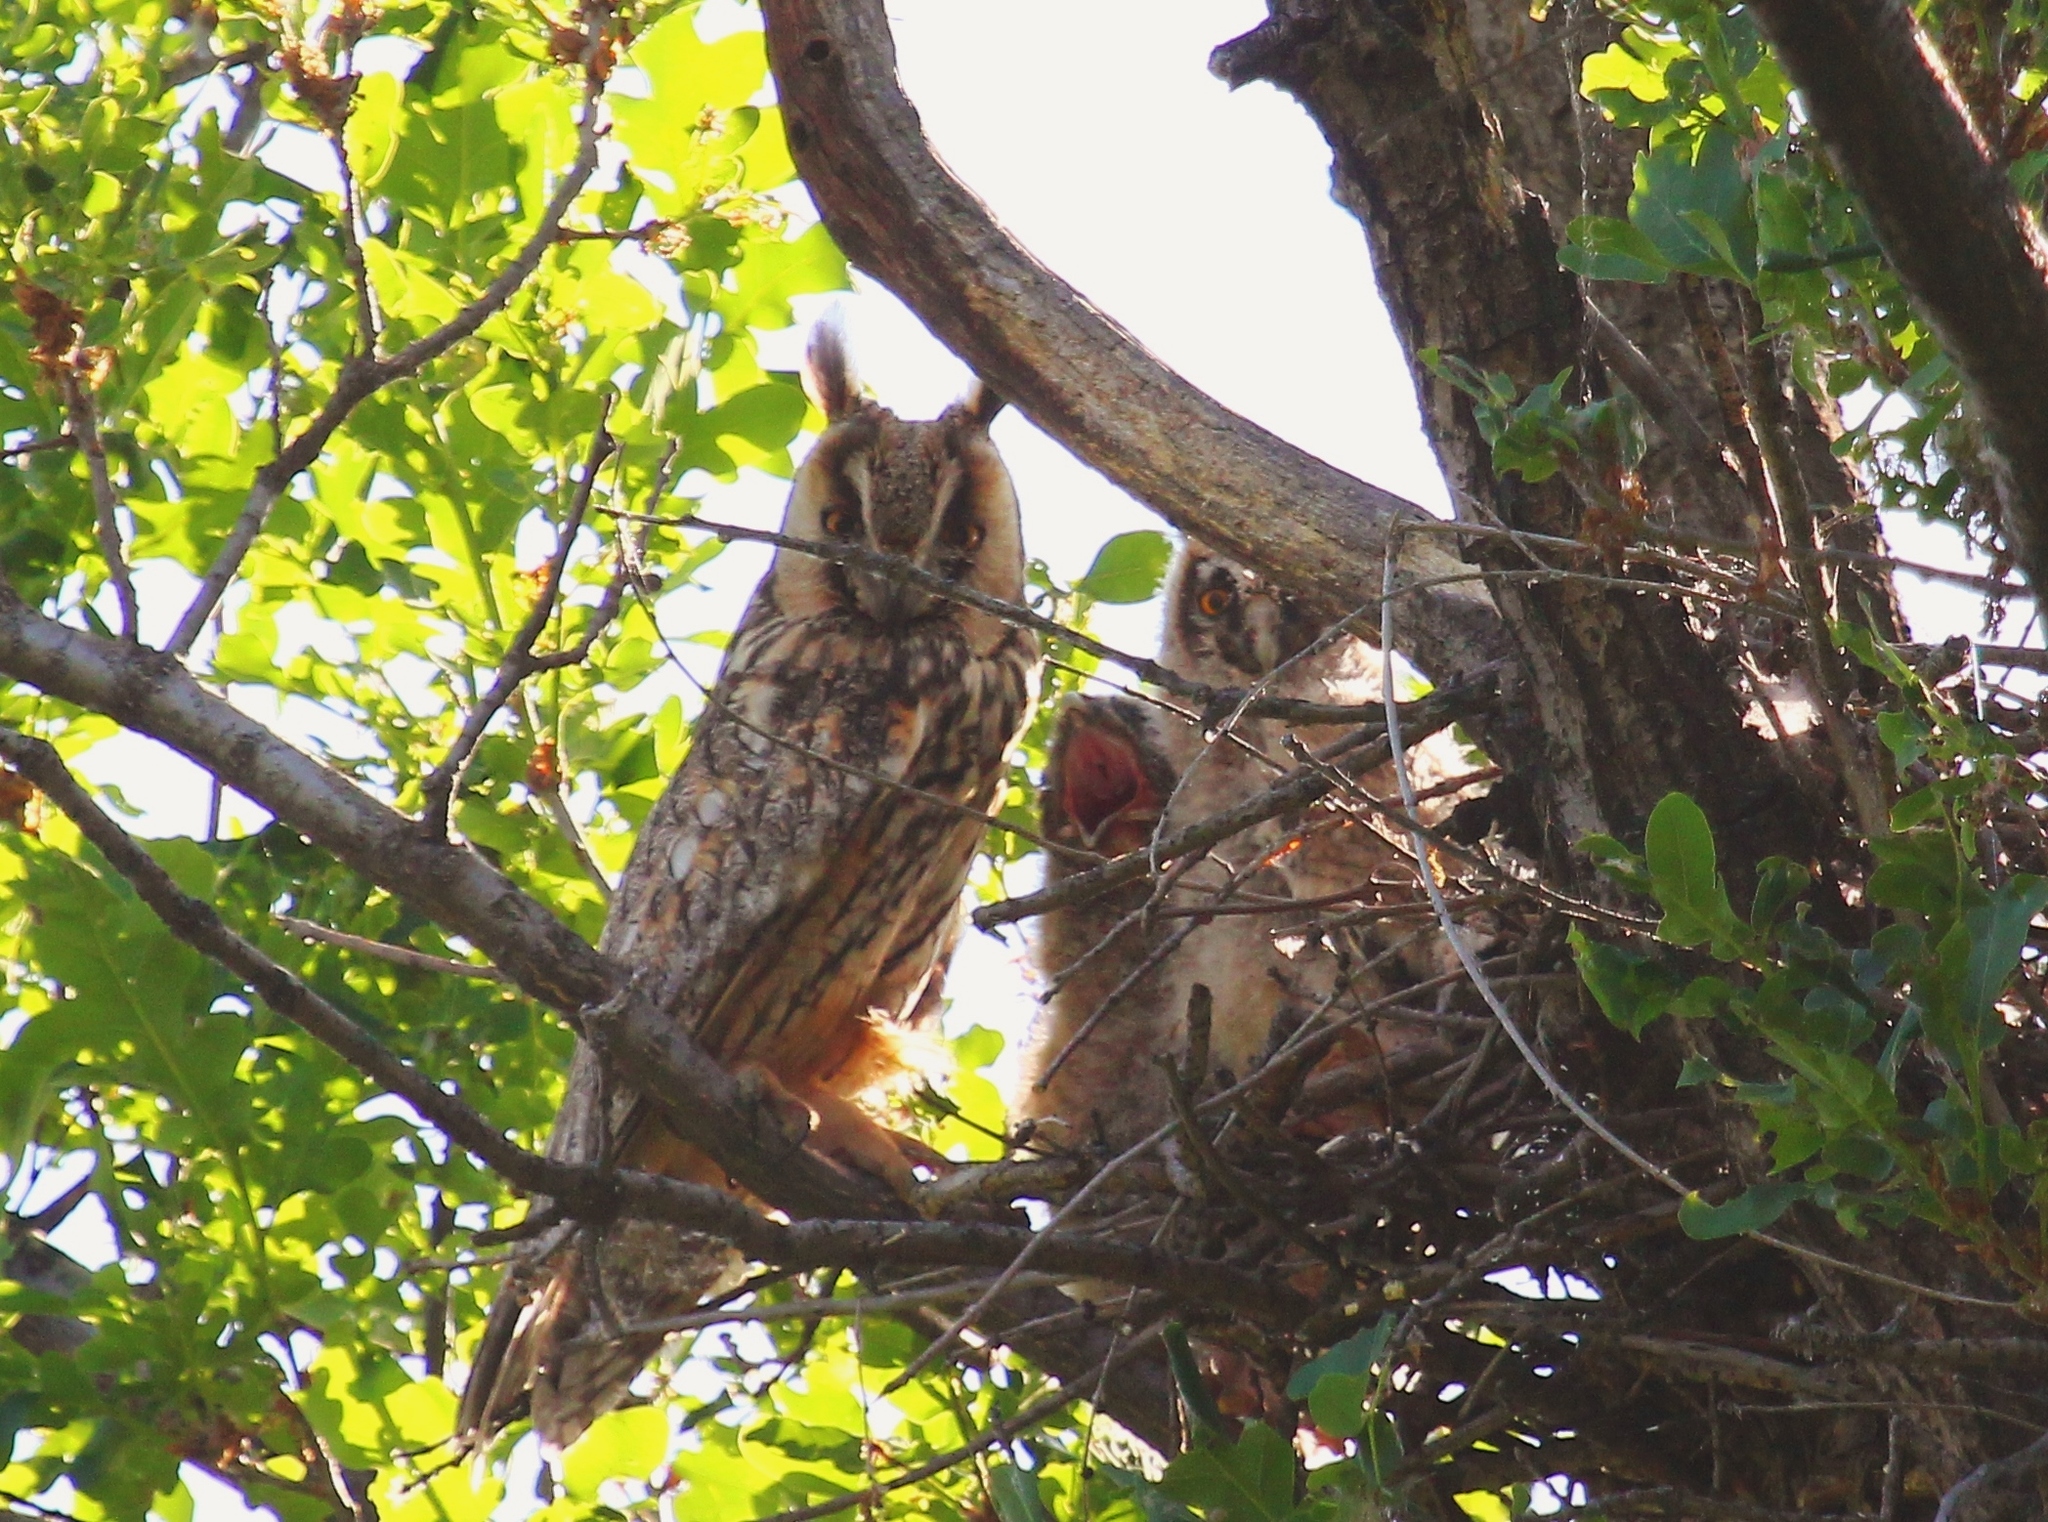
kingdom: Animalia
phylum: Chordata
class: Aves
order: Strigiformes
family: Strigidae
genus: Asio
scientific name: Asio otus
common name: Long-eared owl
